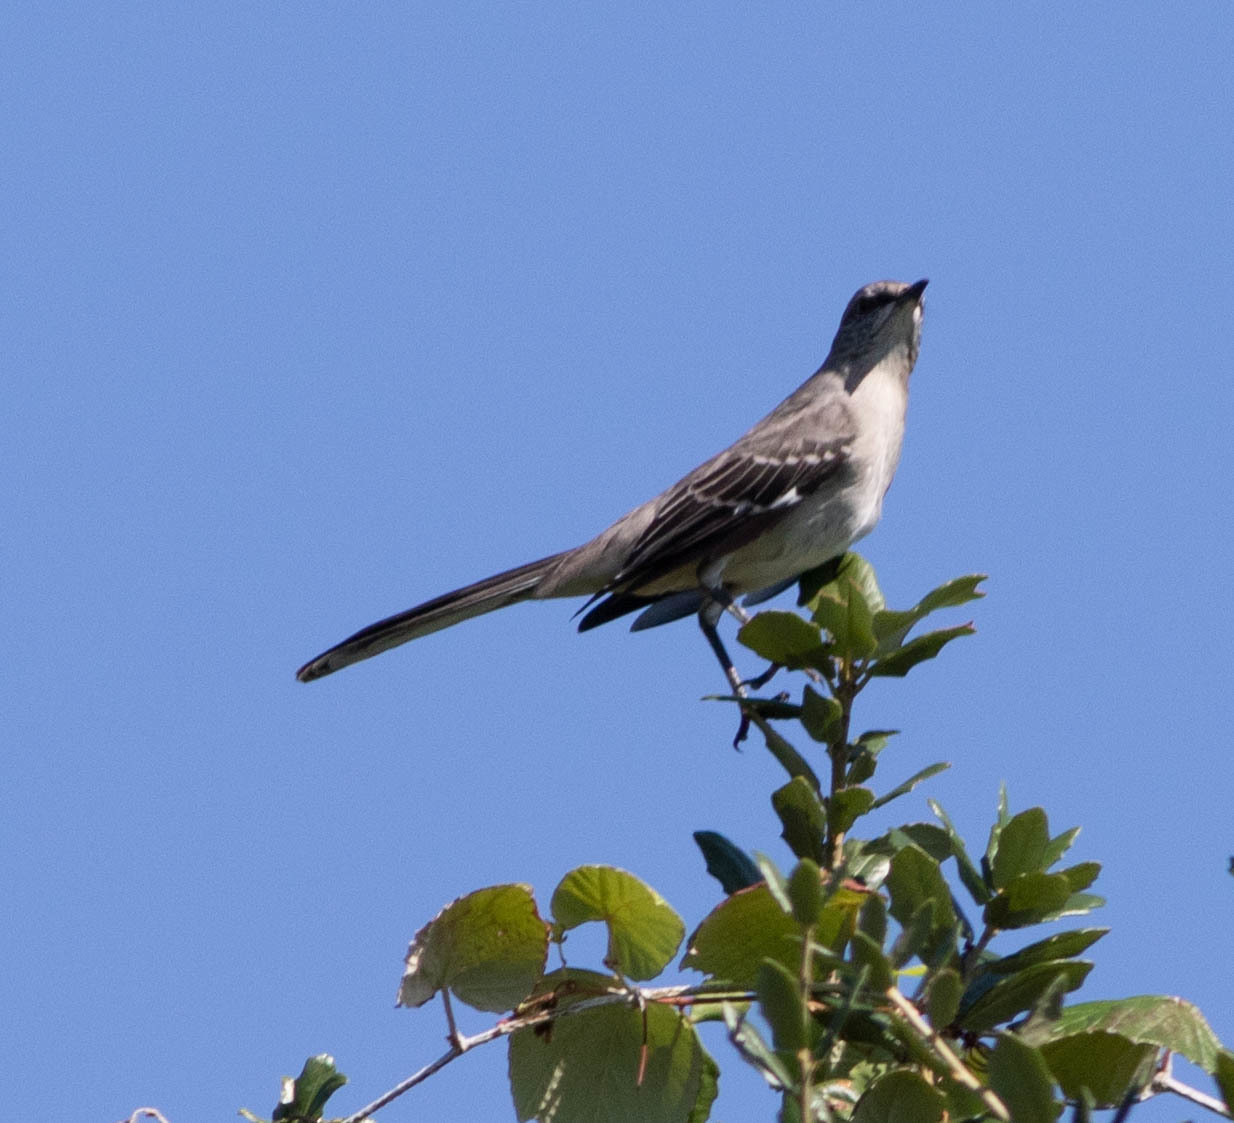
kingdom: Animalia
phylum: Chordata
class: Aves
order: Passeriformes
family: Mimidae
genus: Mimus
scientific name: Mimus polyglottos
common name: Northern mockingbird
